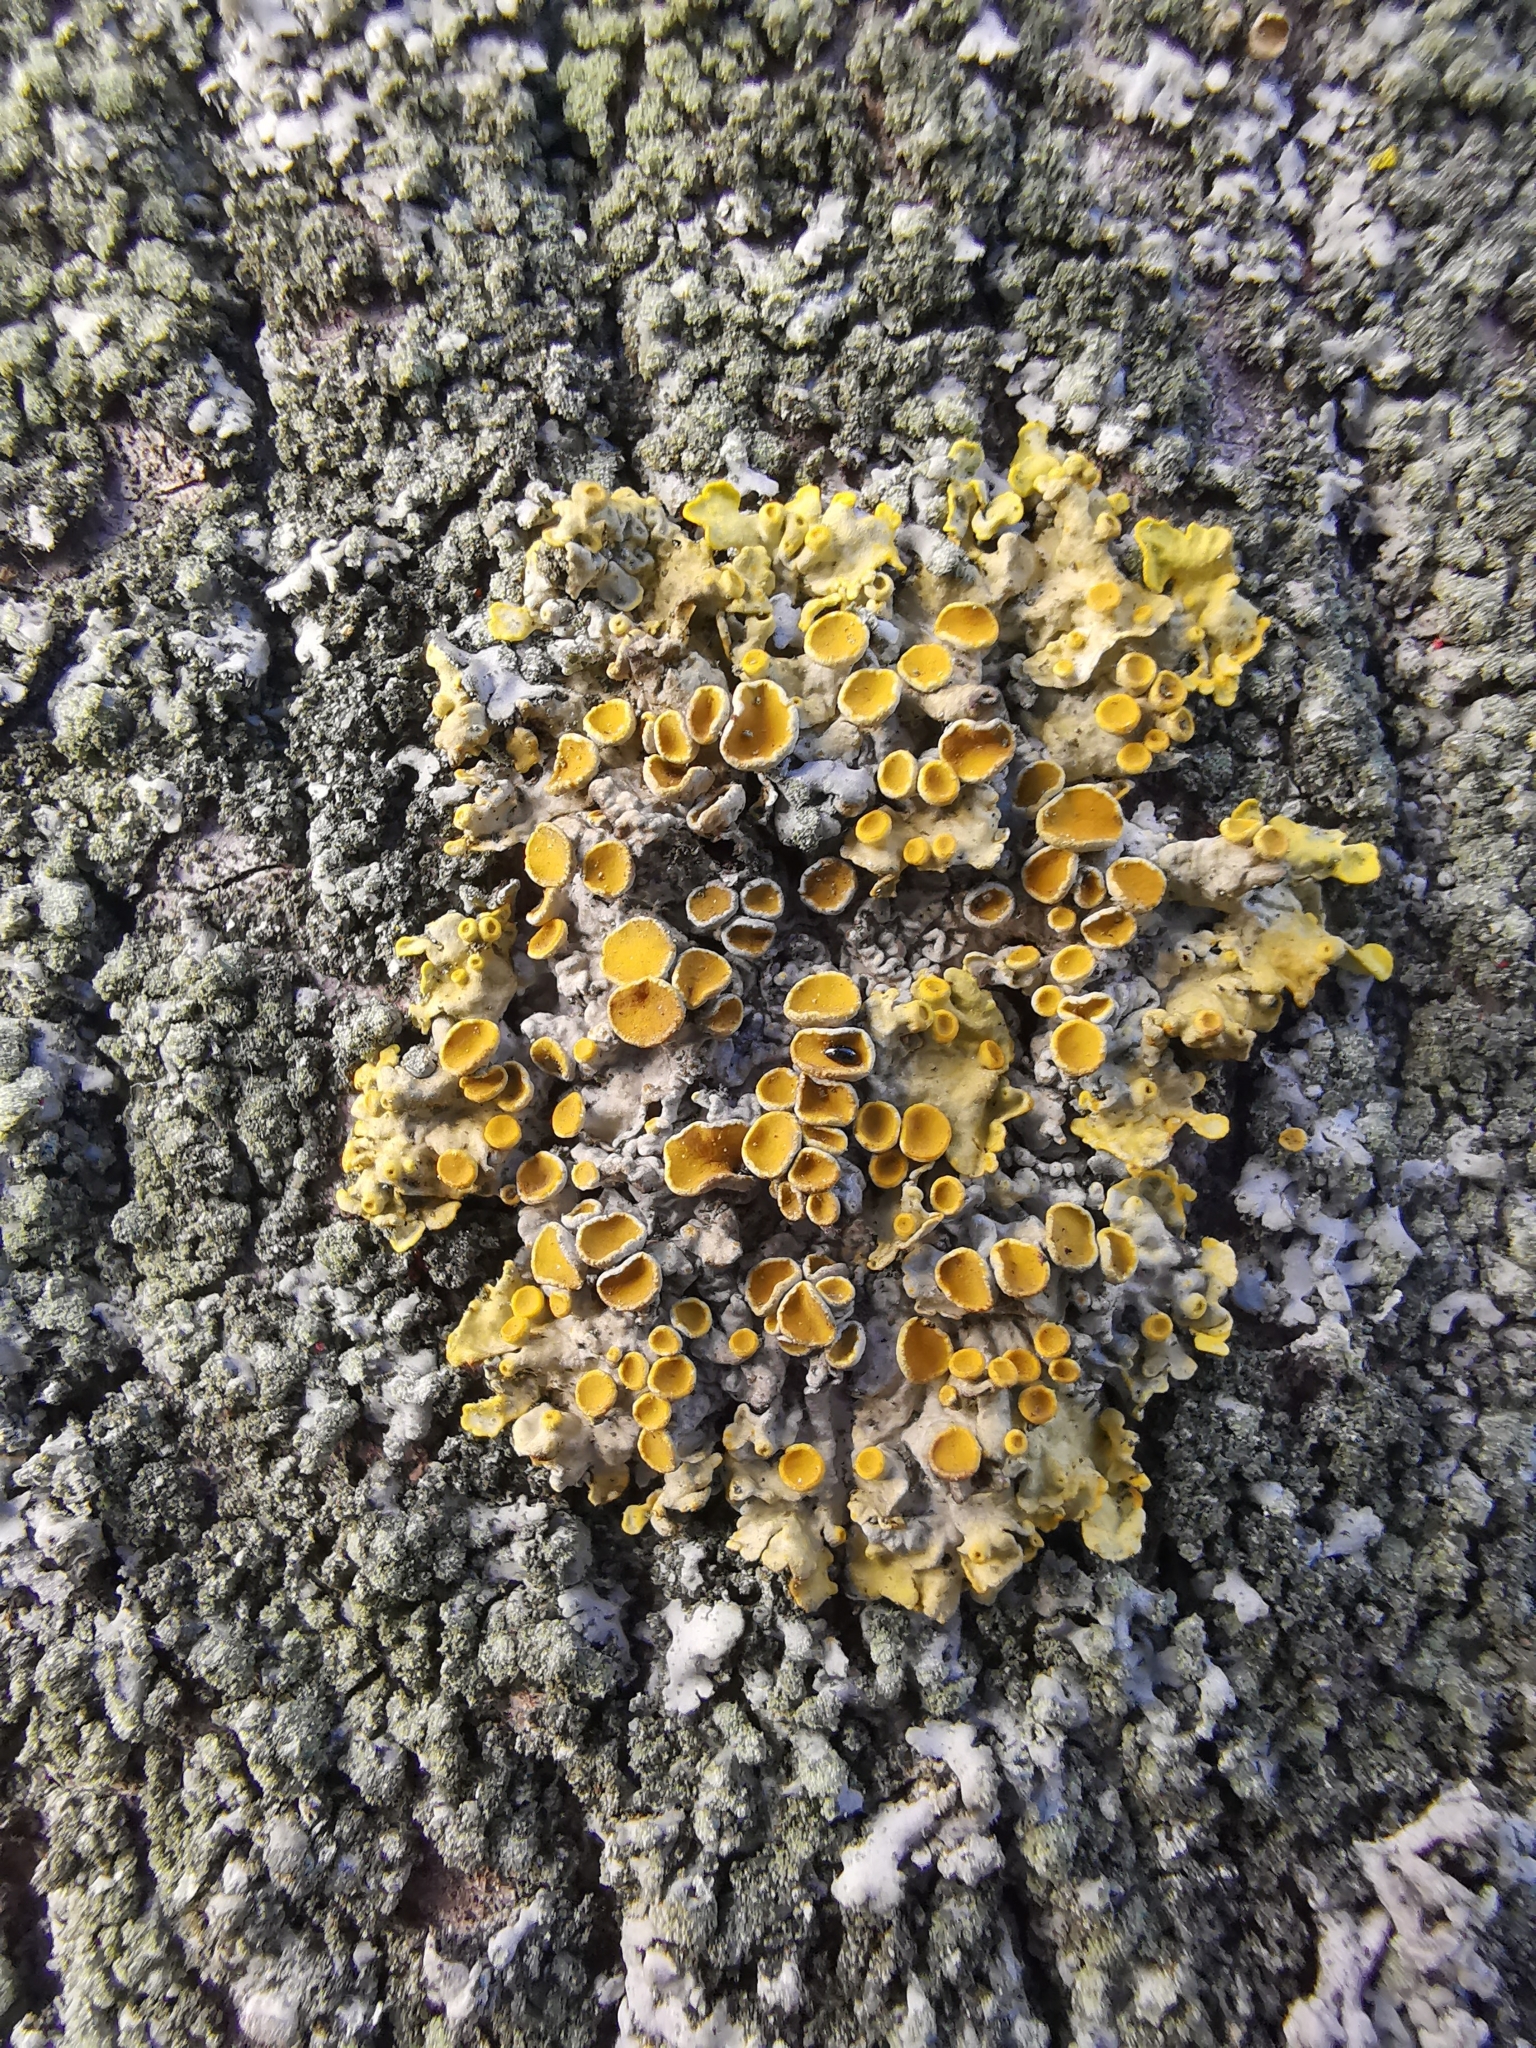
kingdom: Fungi
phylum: Ascomycota
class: Lecanoromycetes
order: Teloschistales
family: Teloschistaceae
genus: Xanthoria
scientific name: Xanthoria parietina
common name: Common orange lichen
